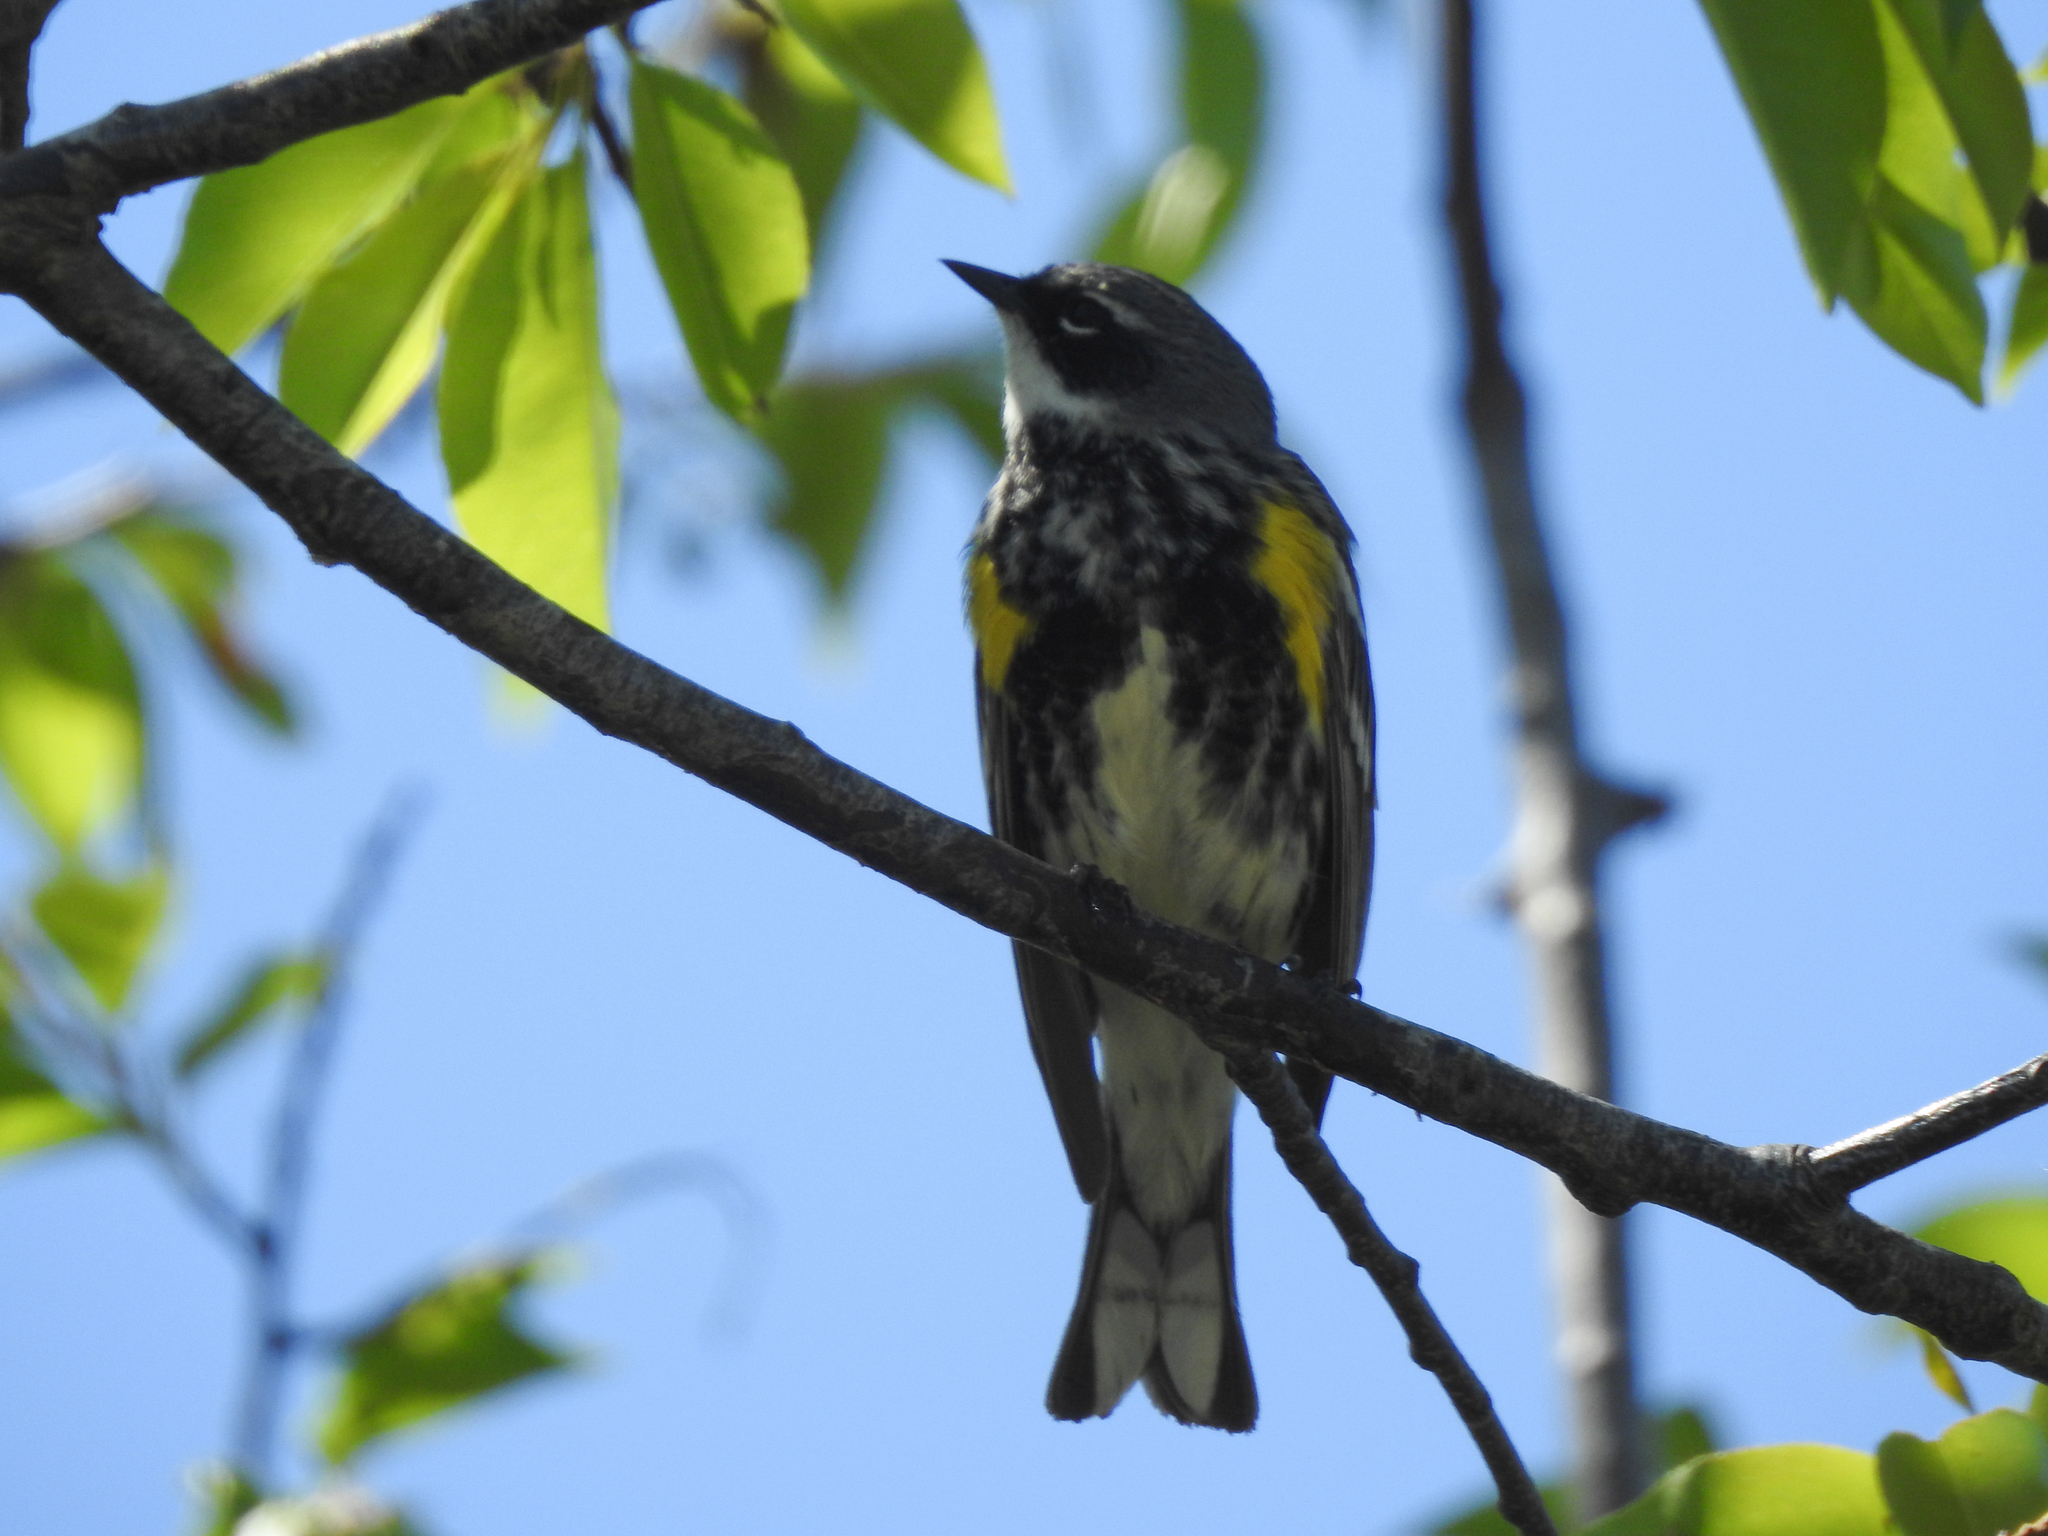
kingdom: Animalia
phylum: Chordata
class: Aves
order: Passeriformes
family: Parulidae
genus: Setophaga
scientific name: Setophaga coronata
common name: Myrtle warbler
